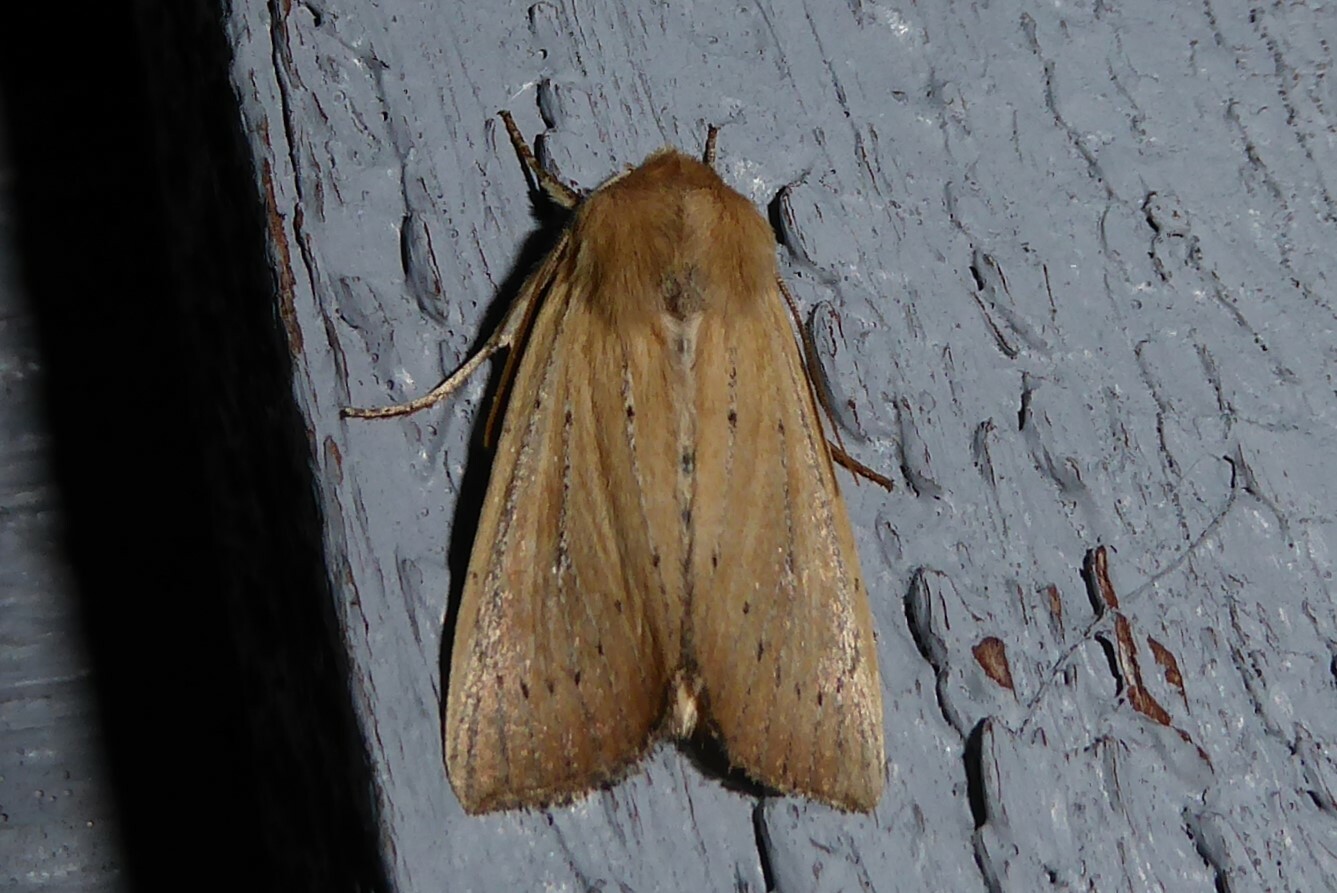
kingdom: Animalia
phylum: Arthropoda
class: Insecta
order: Lepidoptera
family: Noctuidae
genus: Ichneutica
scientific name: Ichneutica blenheimensis
